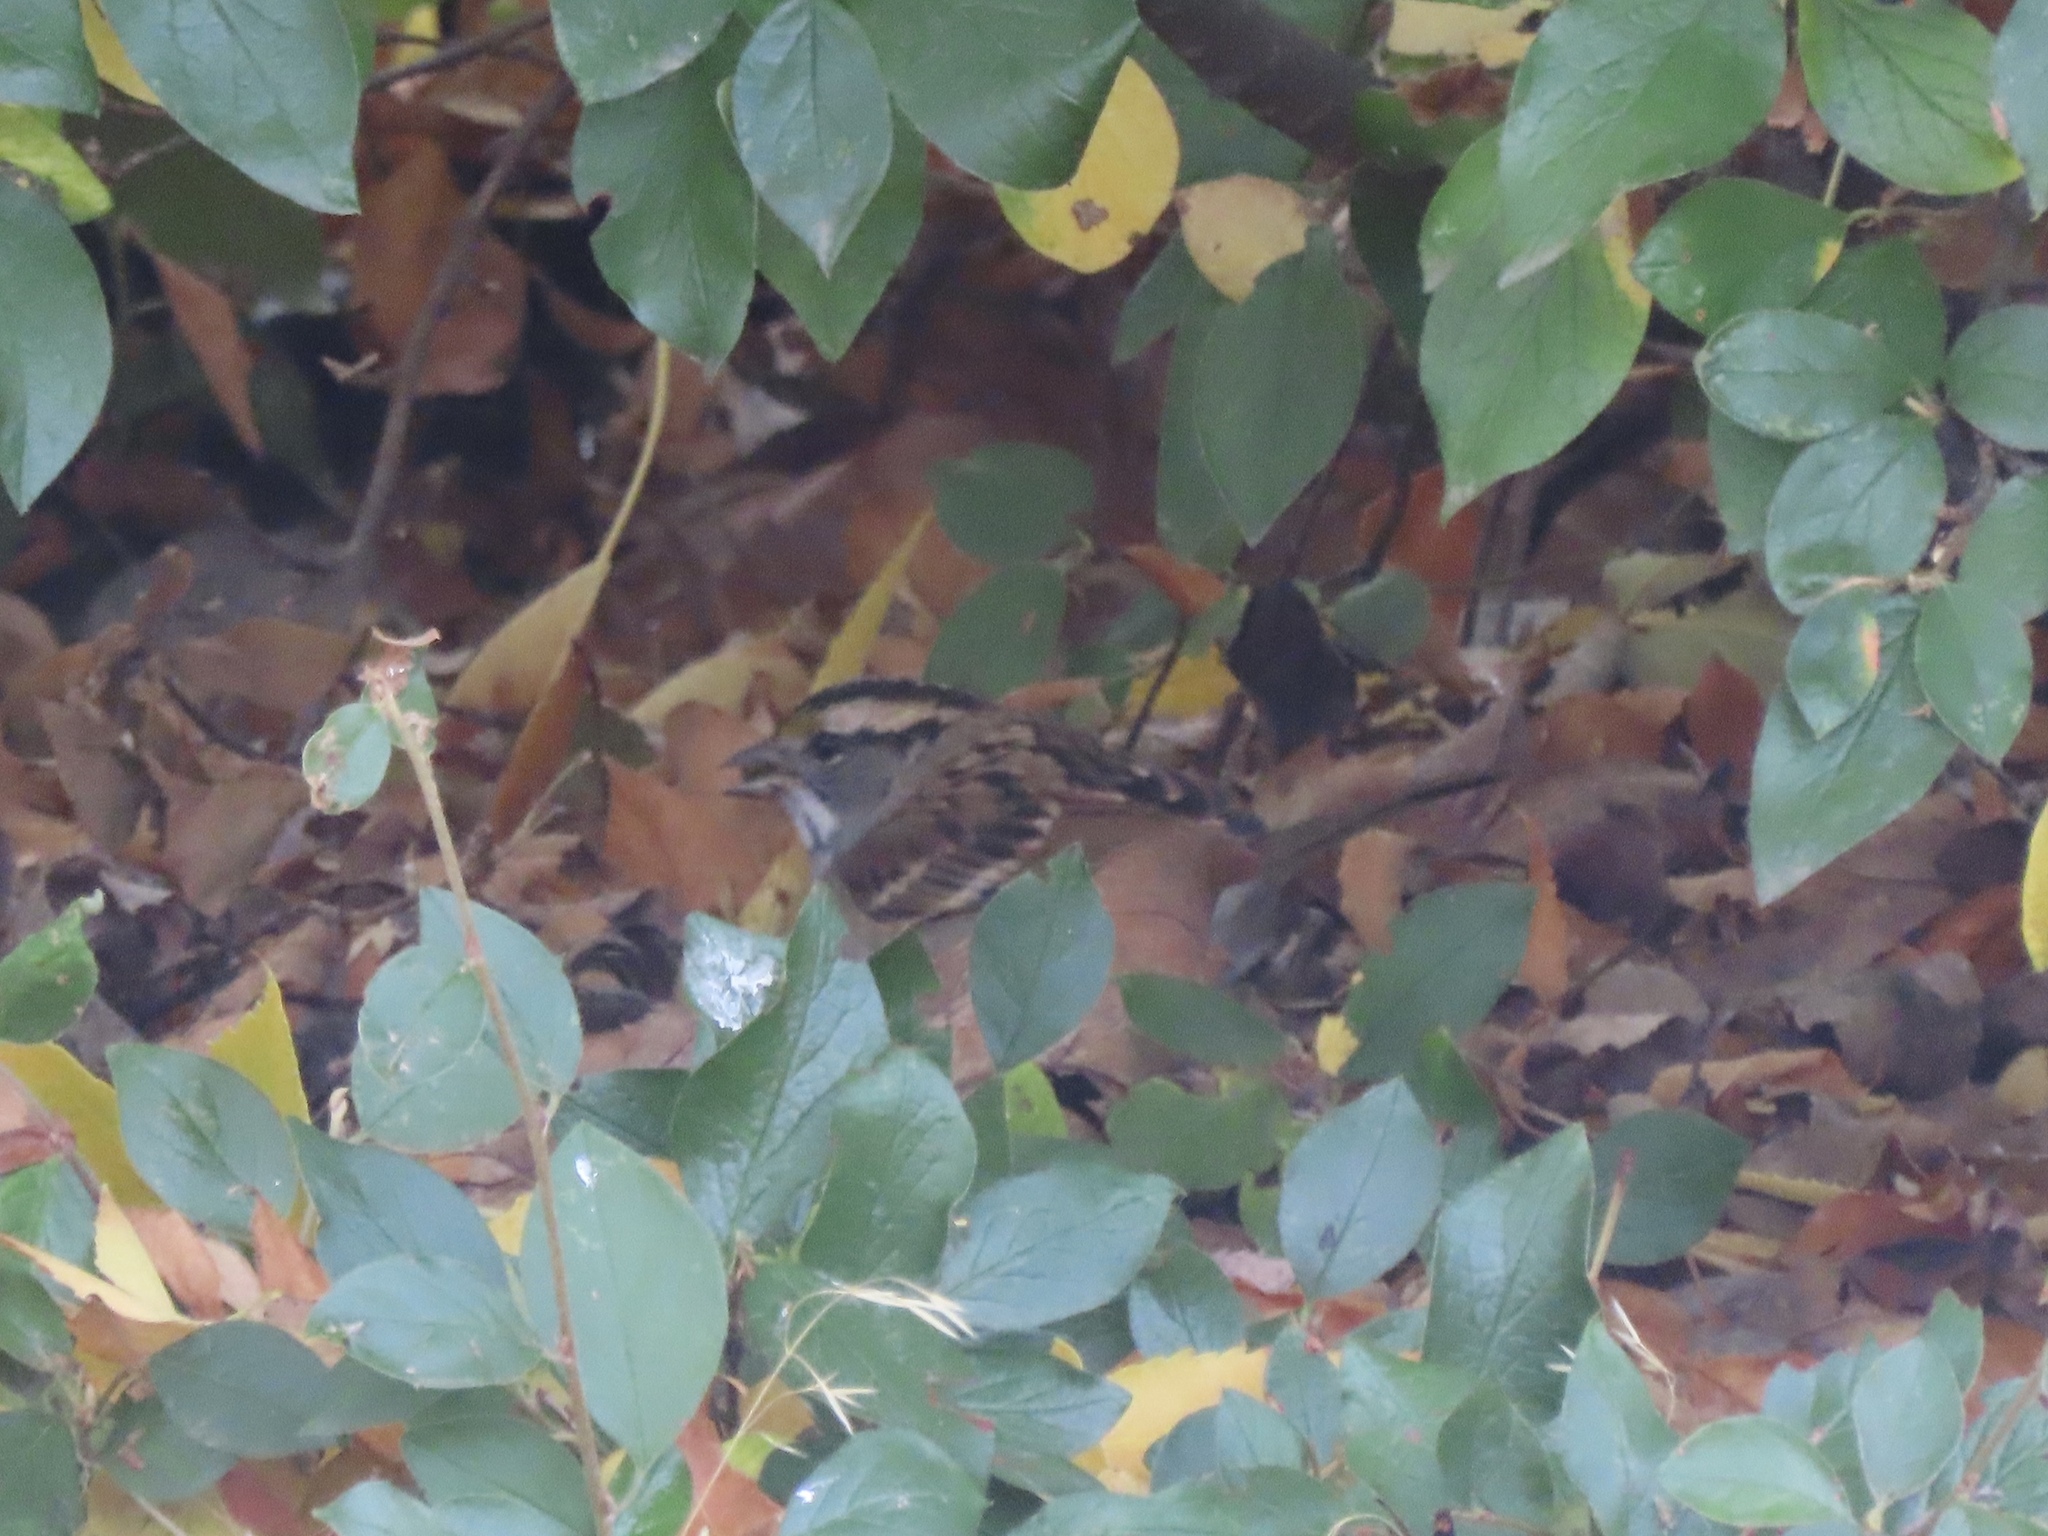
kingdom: Animalia
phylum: Chordata
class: Aves
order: Passeriformes
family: Passerellidae
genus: Zonotrichia
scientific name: Zonotrichia albicollis
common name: White-throated sparrow
